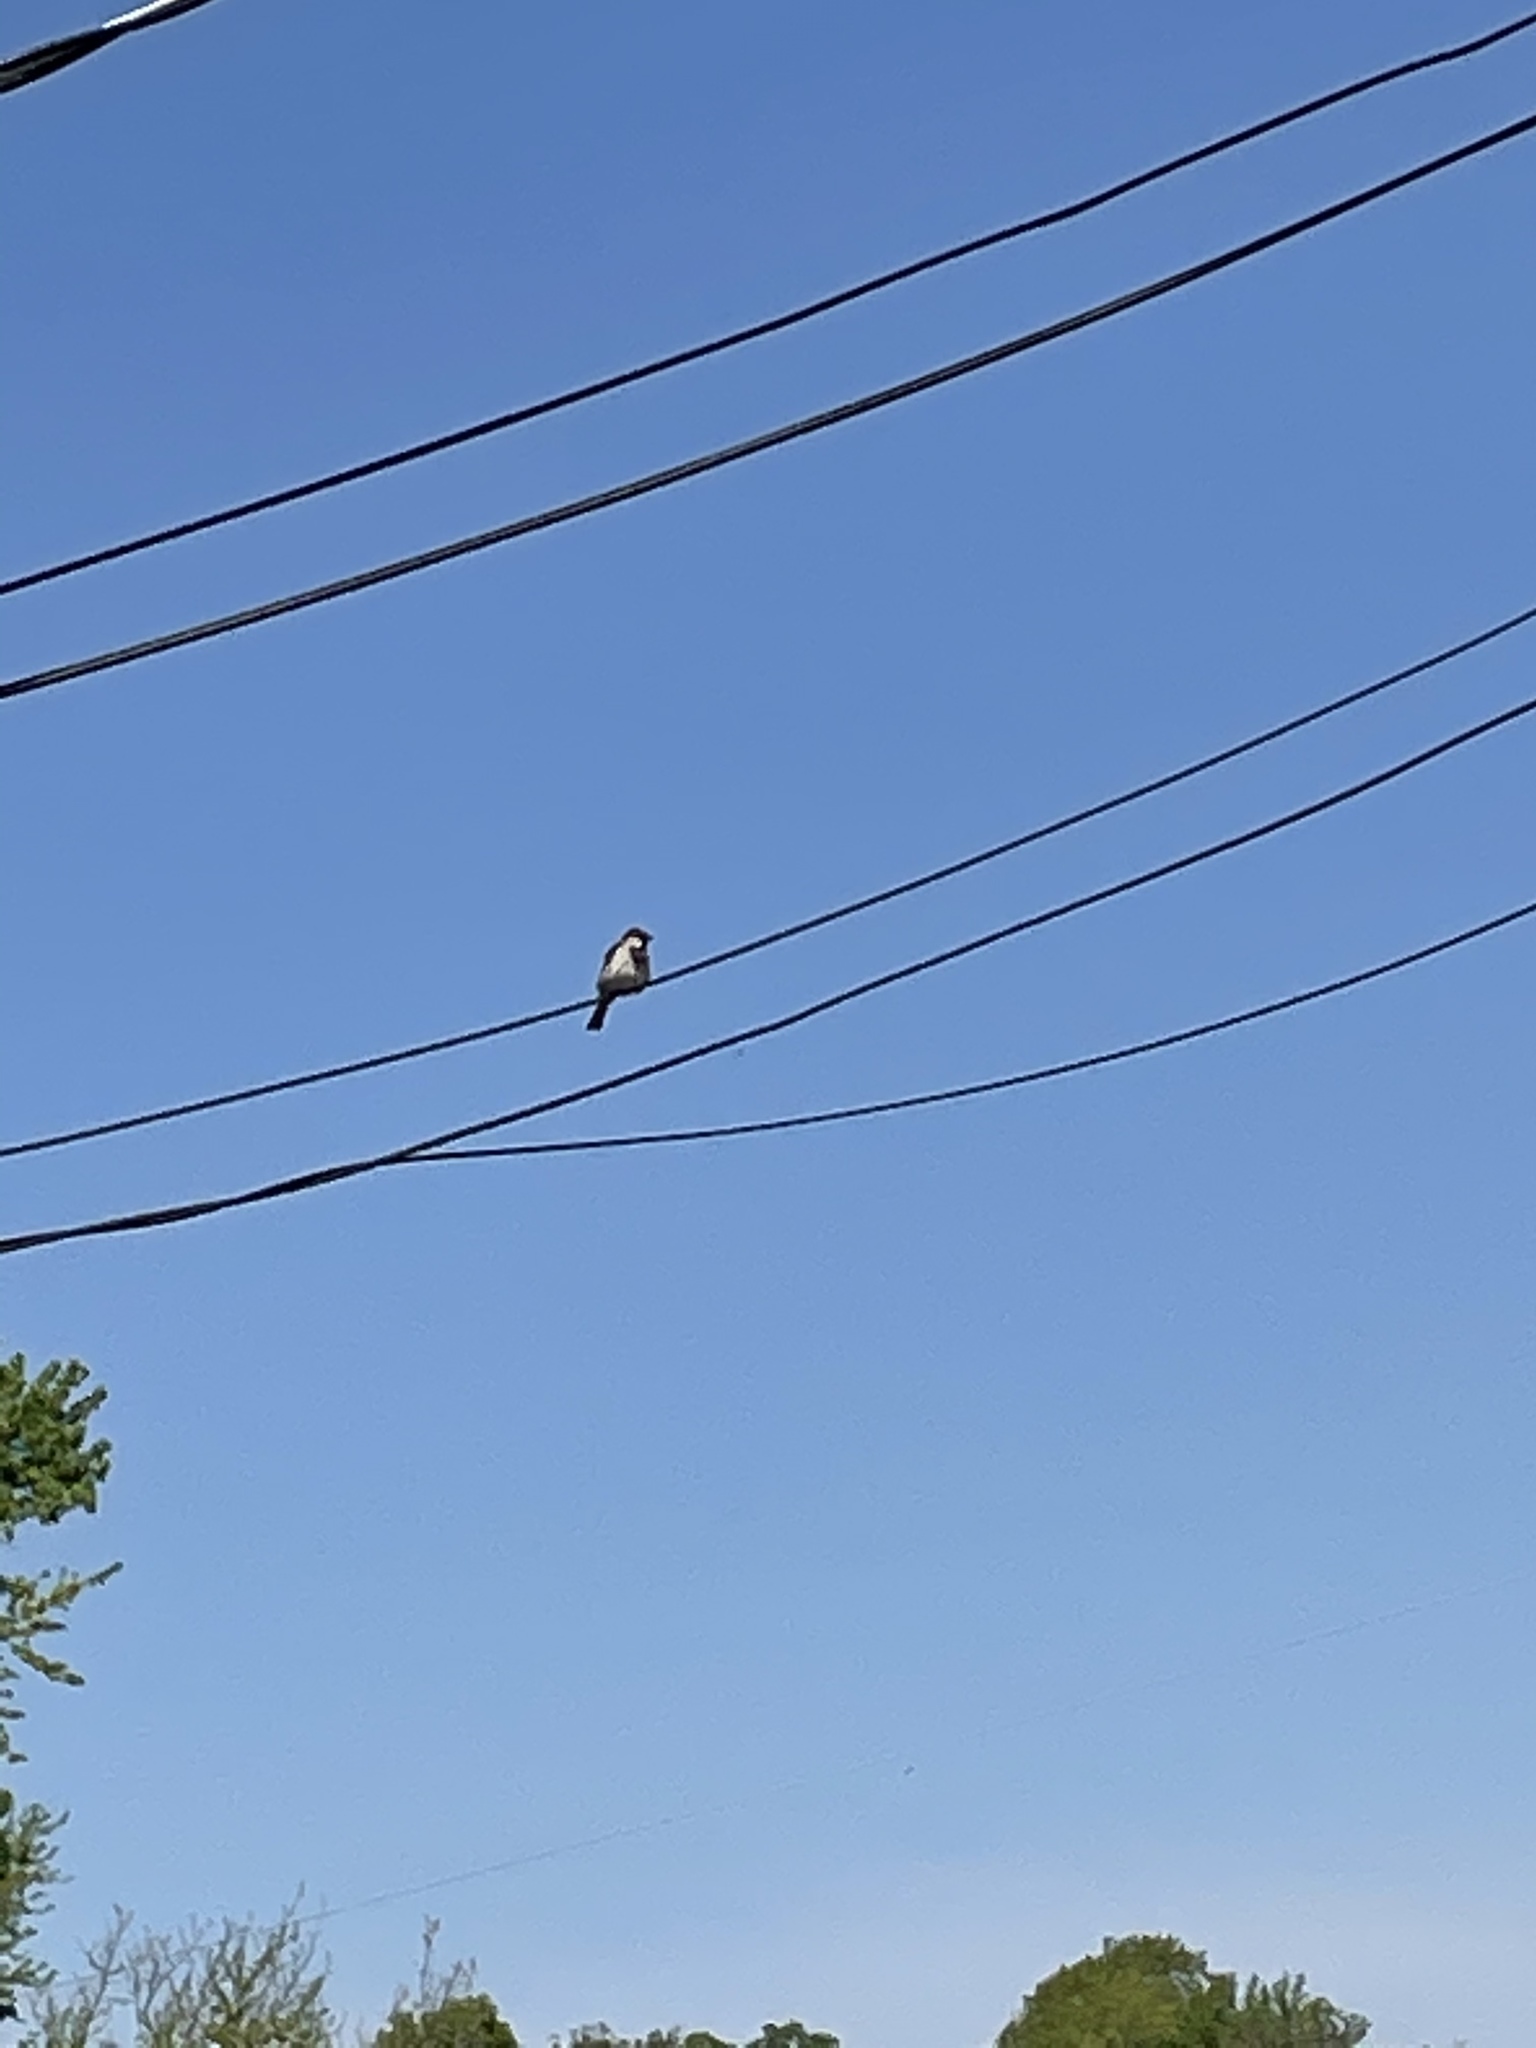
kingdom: Animalia
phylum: Chordata
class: Aves
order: Passeriformes
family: Passeridae
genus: Passer
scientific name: Passer domesticus
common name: House sparrow
